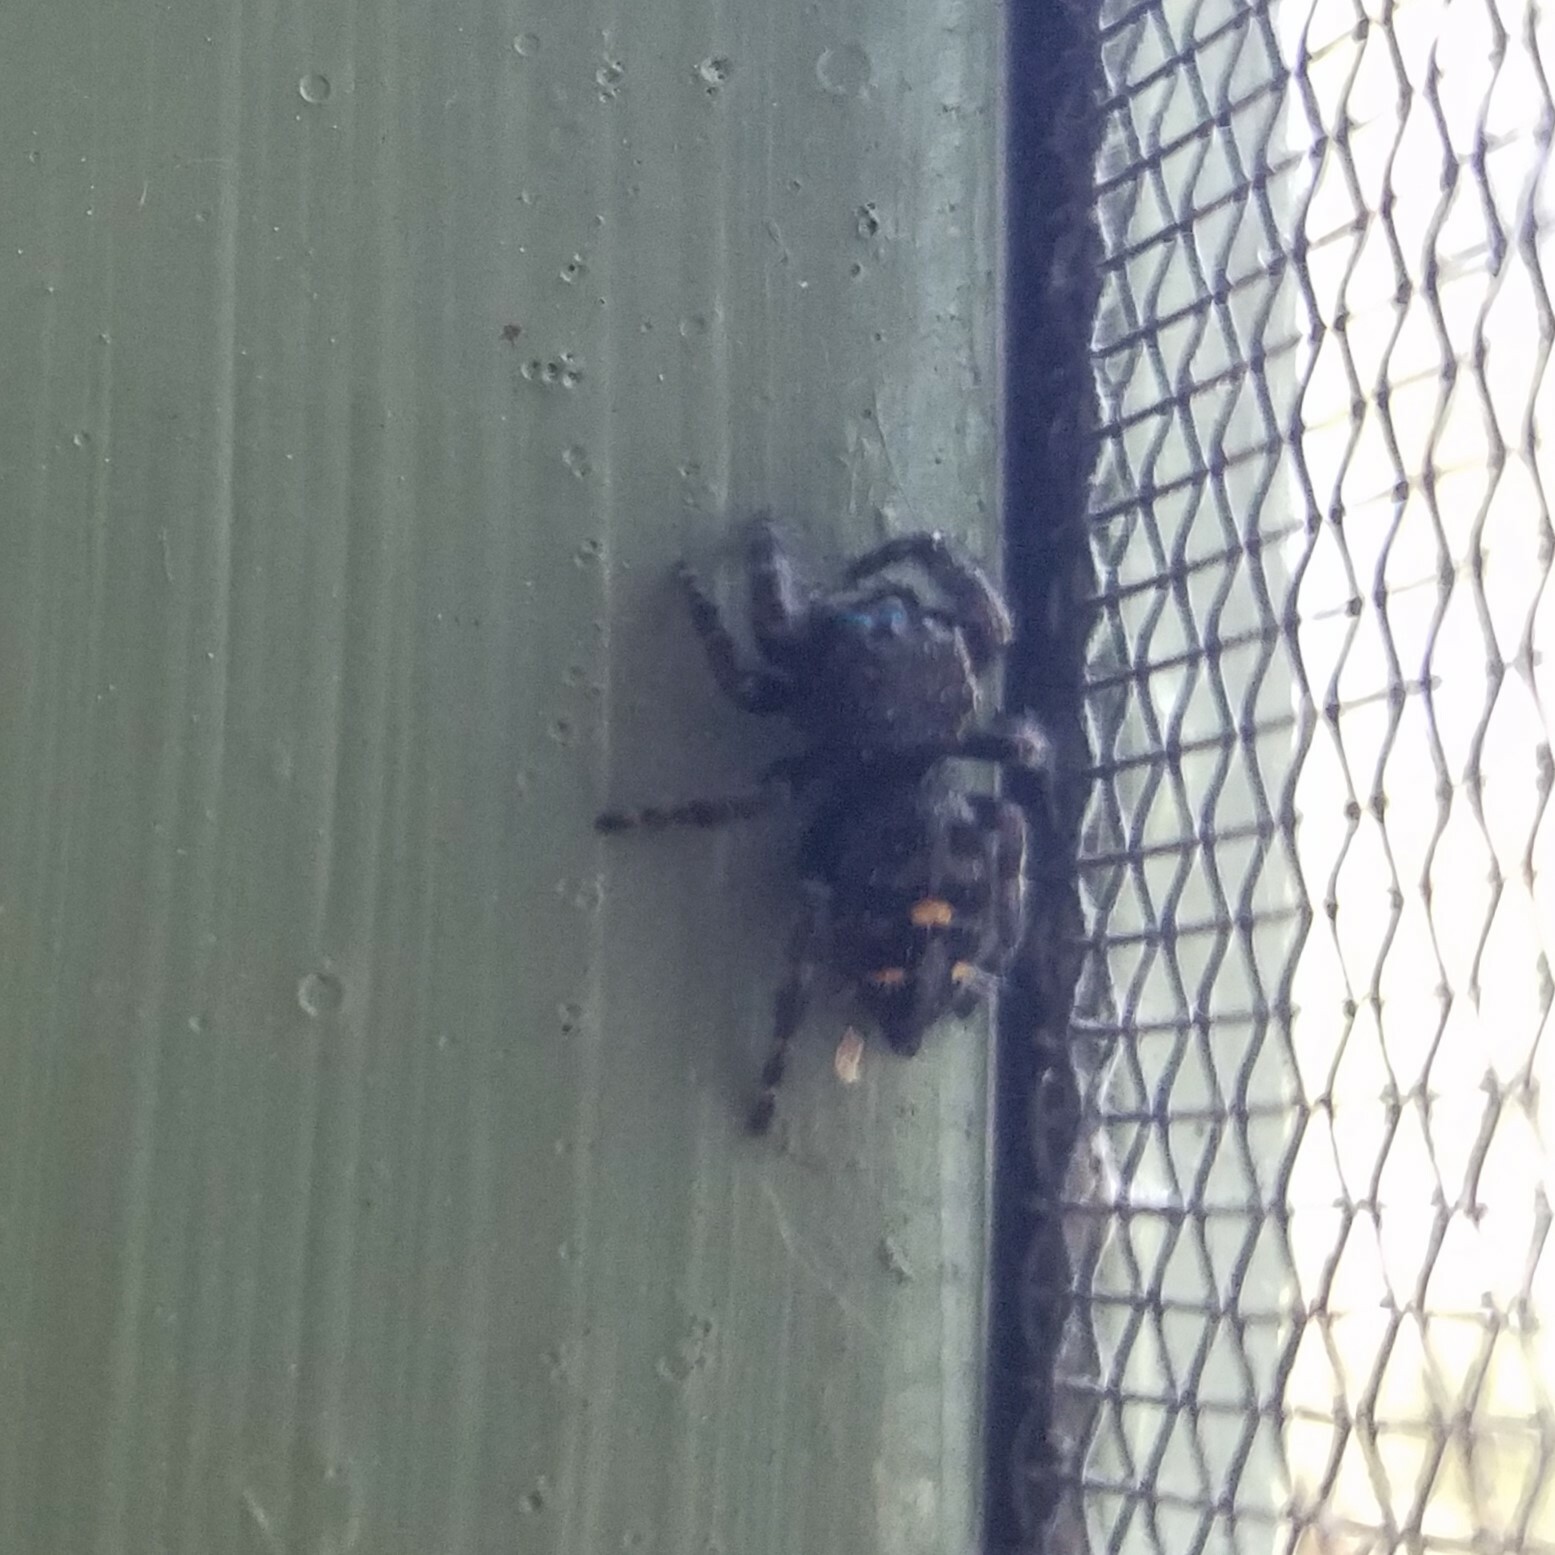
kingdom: Animalia
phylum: Arthropoda
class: Arachnida
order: Araneae
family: Salticidae
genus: Phidippus
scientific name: Phidippus audax
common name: Bold jumper
